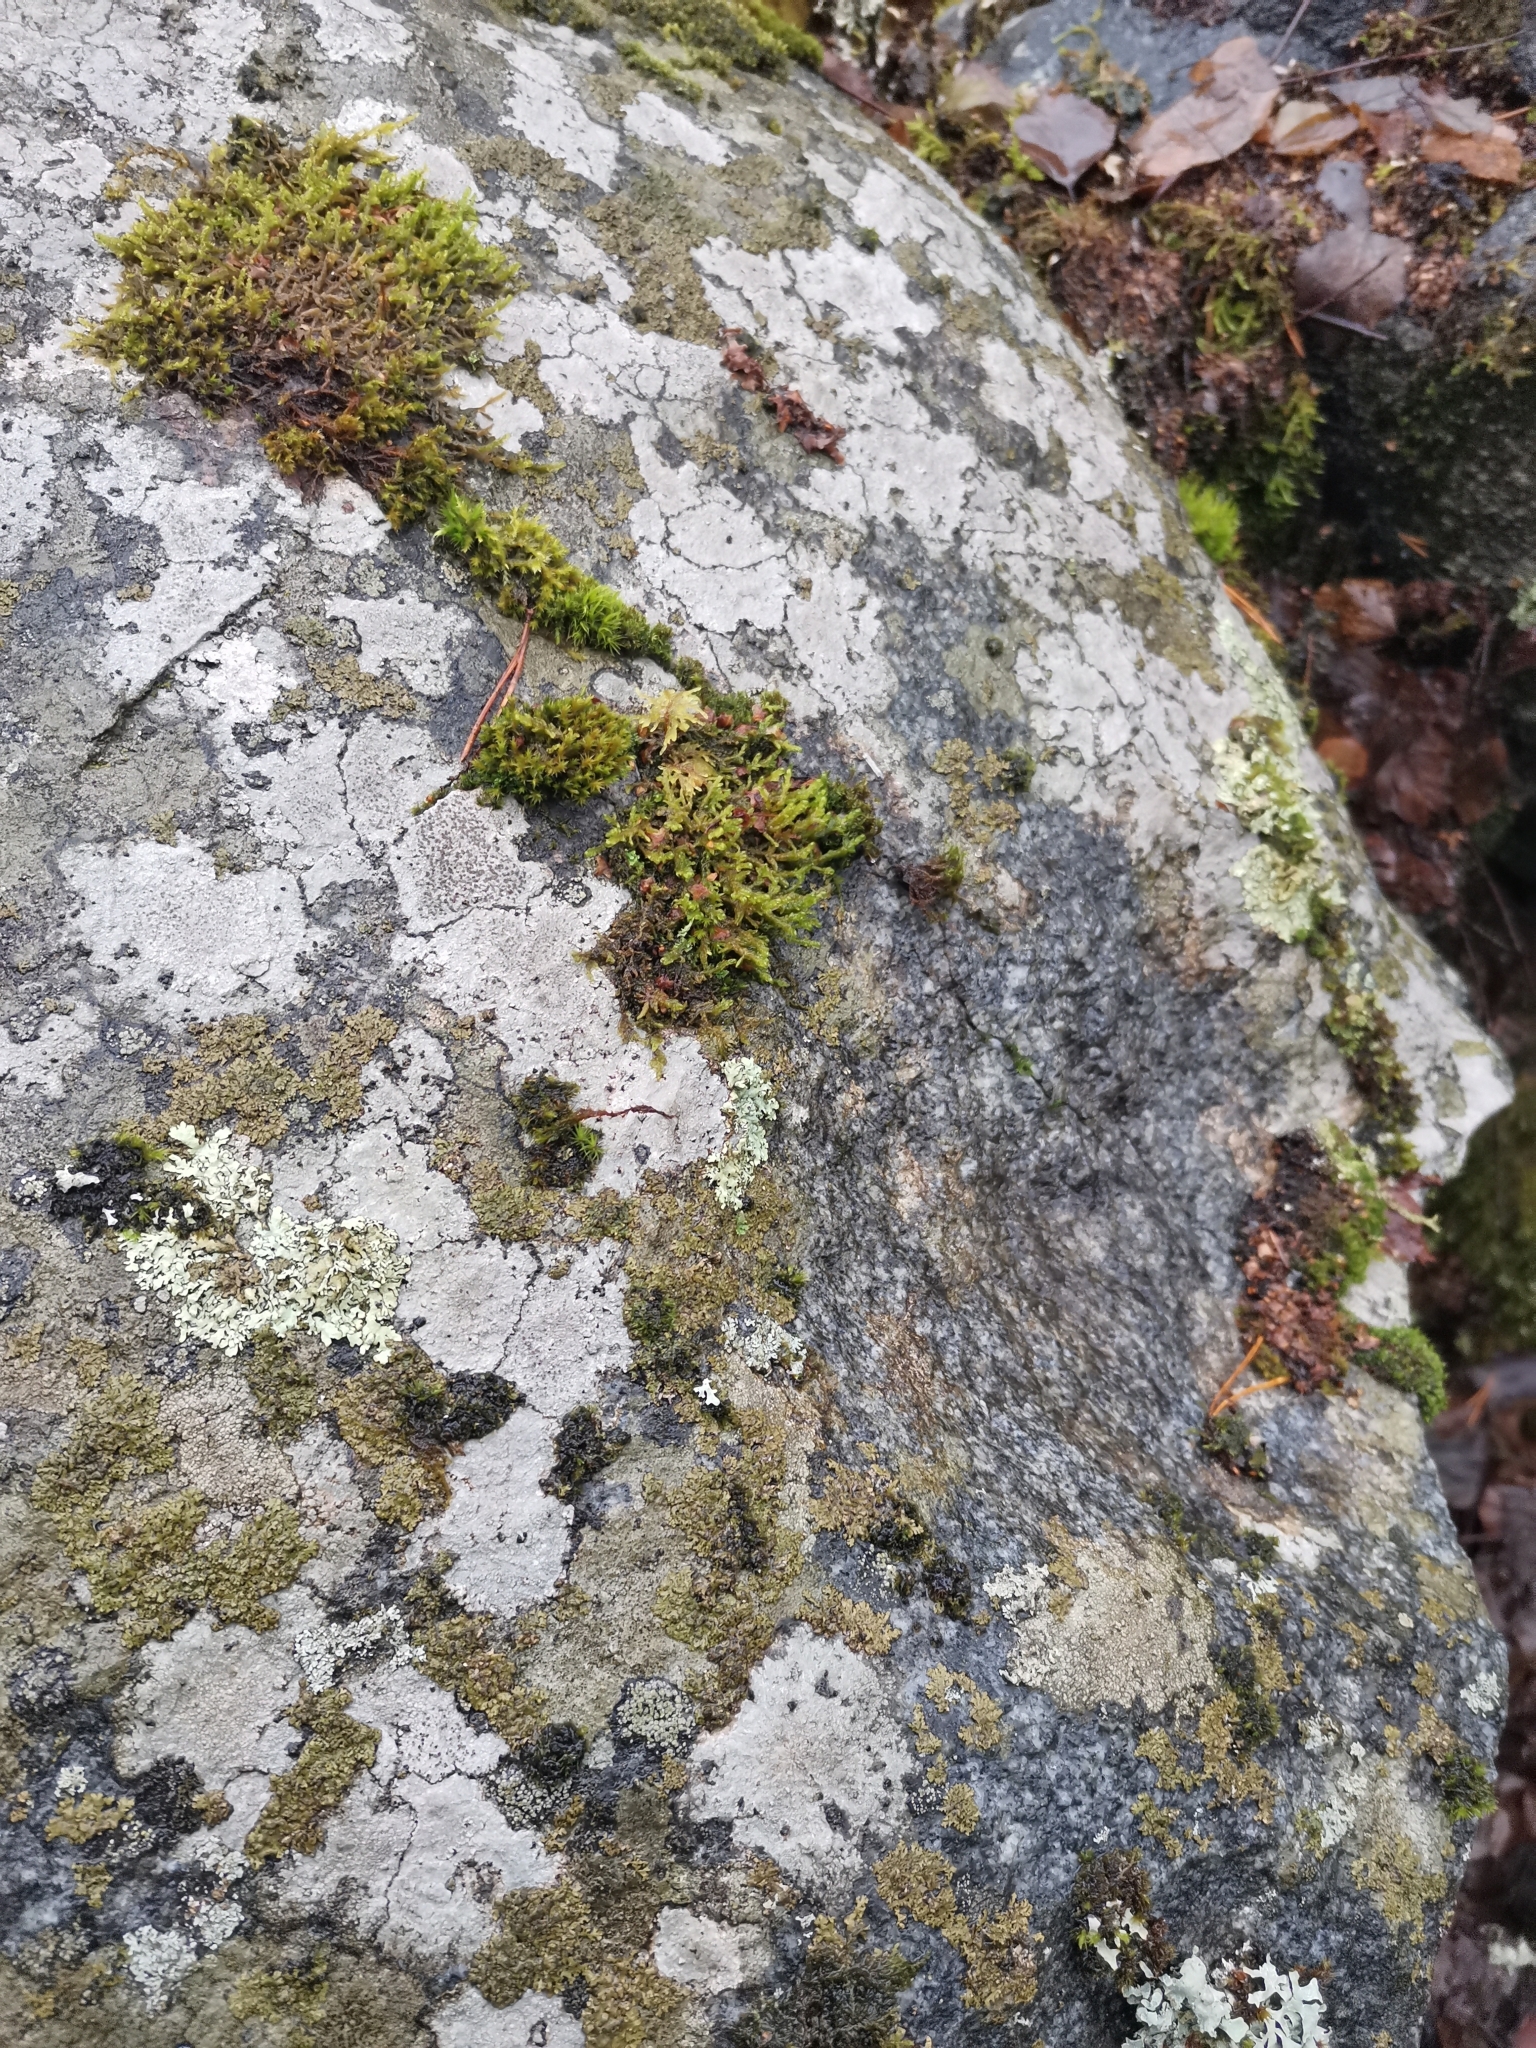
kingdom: Plantae
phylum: Bryophyta
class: Bryopsida
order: Hypnales
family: Scorpidiaceae
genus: Sanionia
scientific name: Sanionia uncinata
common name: Sickle moss
